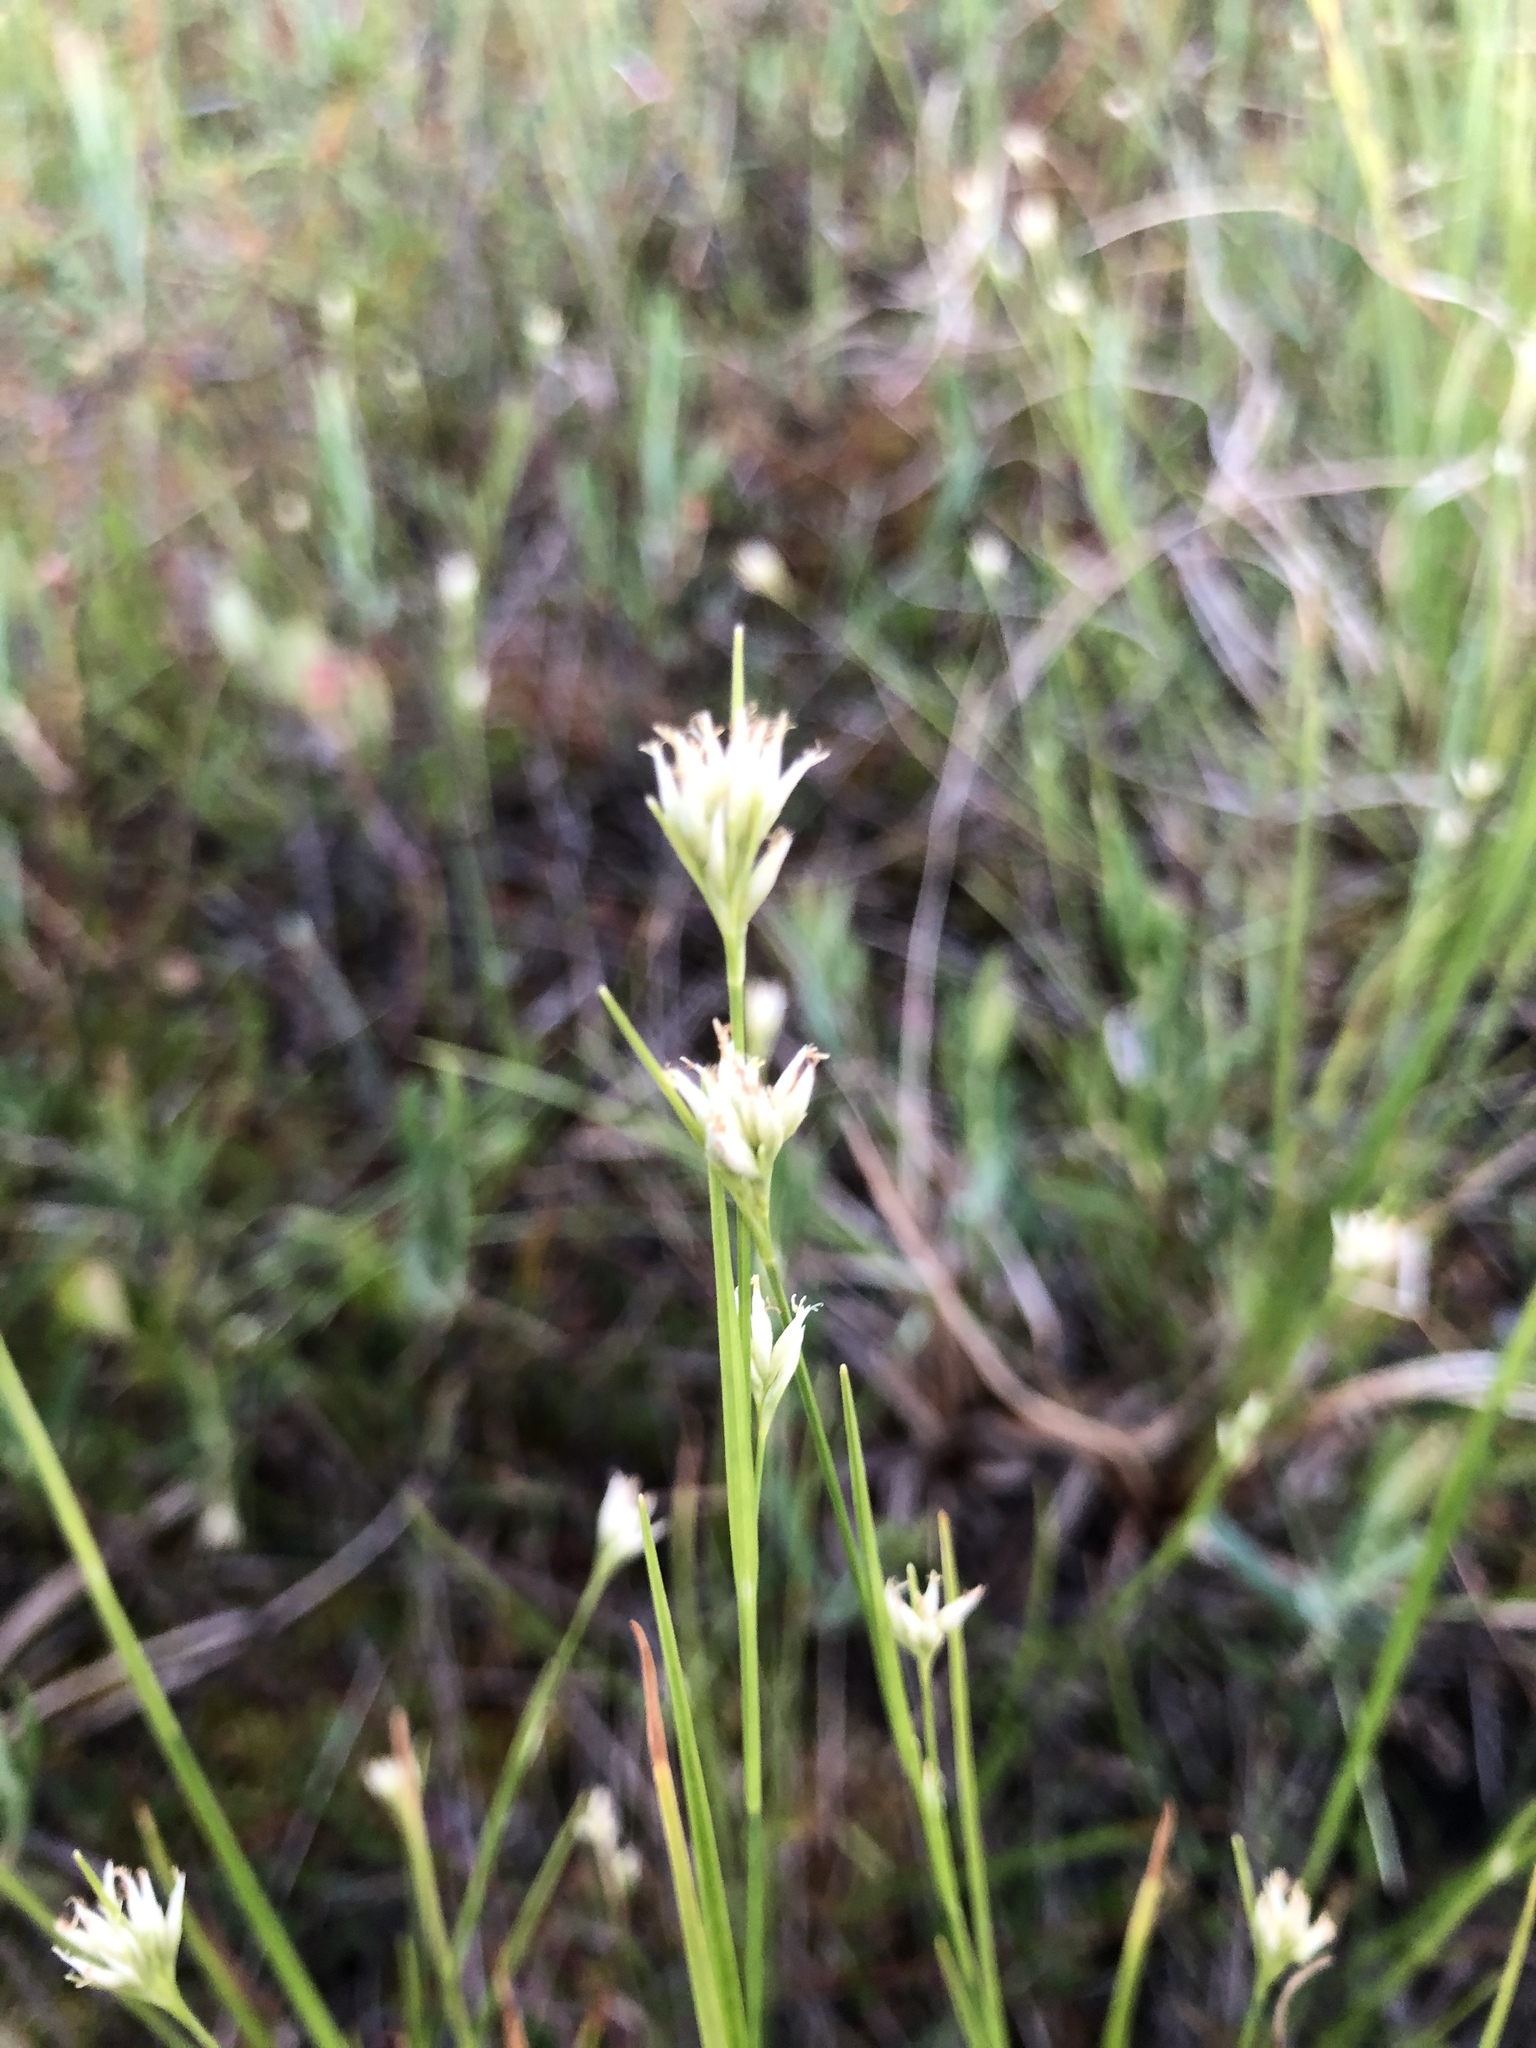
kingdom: Plantae
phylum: Tracheophyta
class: Liliopsida
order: Poales
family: Cyperaceae
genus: Rhynchospora
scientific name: Rhynchospora alba
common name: White beak-sedge
